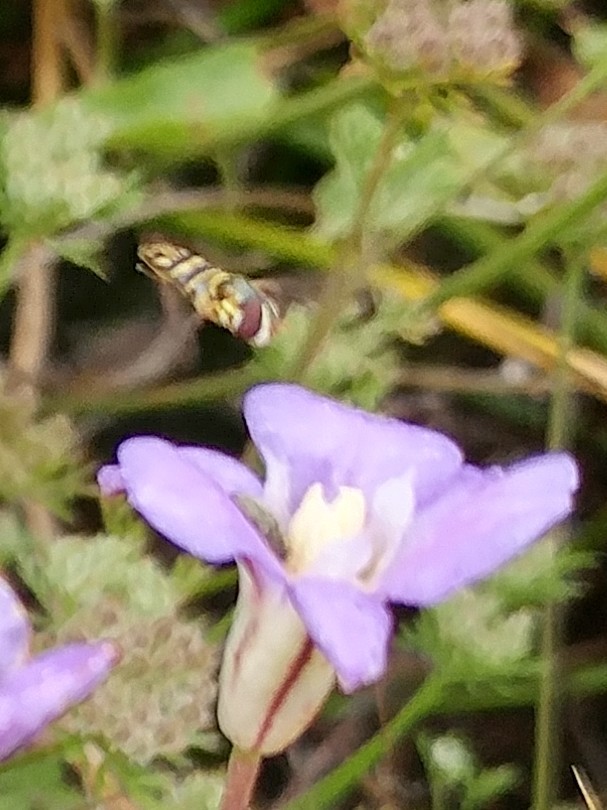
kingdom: Animalia
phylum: Arthropoda
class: Insecta
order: Diptera
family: Syrphidae
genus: Allograpta
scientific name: Allograpta
